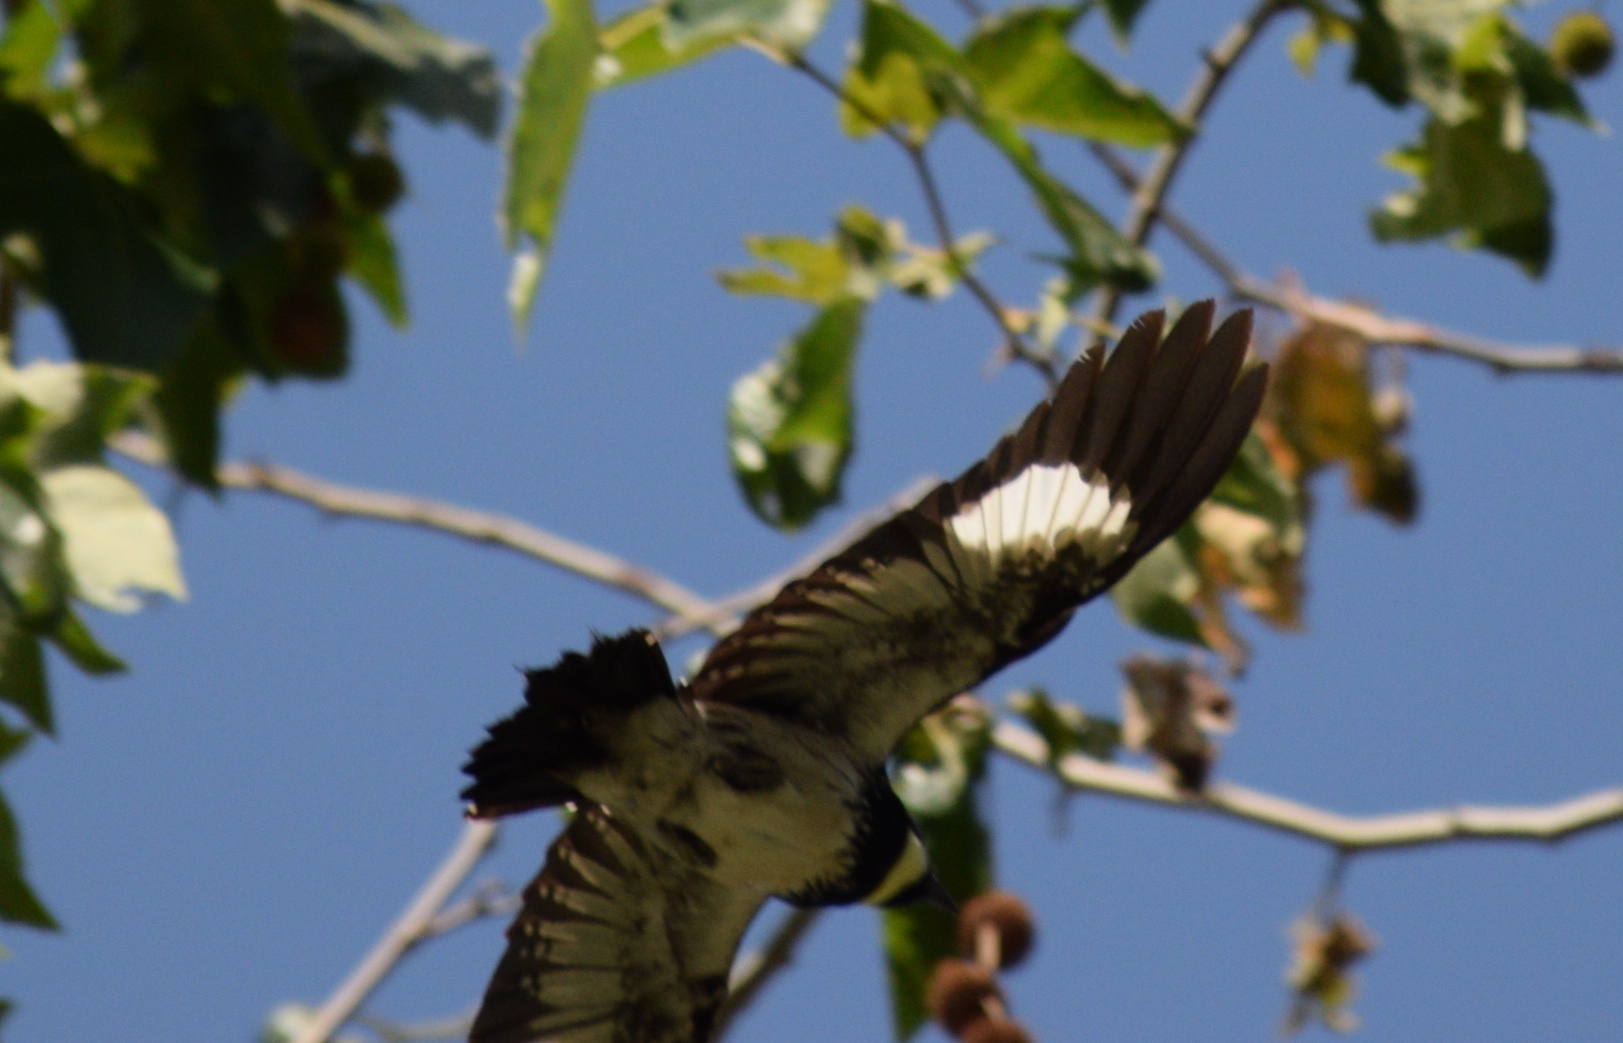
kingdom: Animalia
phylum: Chordata
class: Aves
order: Piciformes
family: Picidae
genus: Melanerpes
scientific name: Melanerpes formicivorus
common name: Acorn woodpecker
